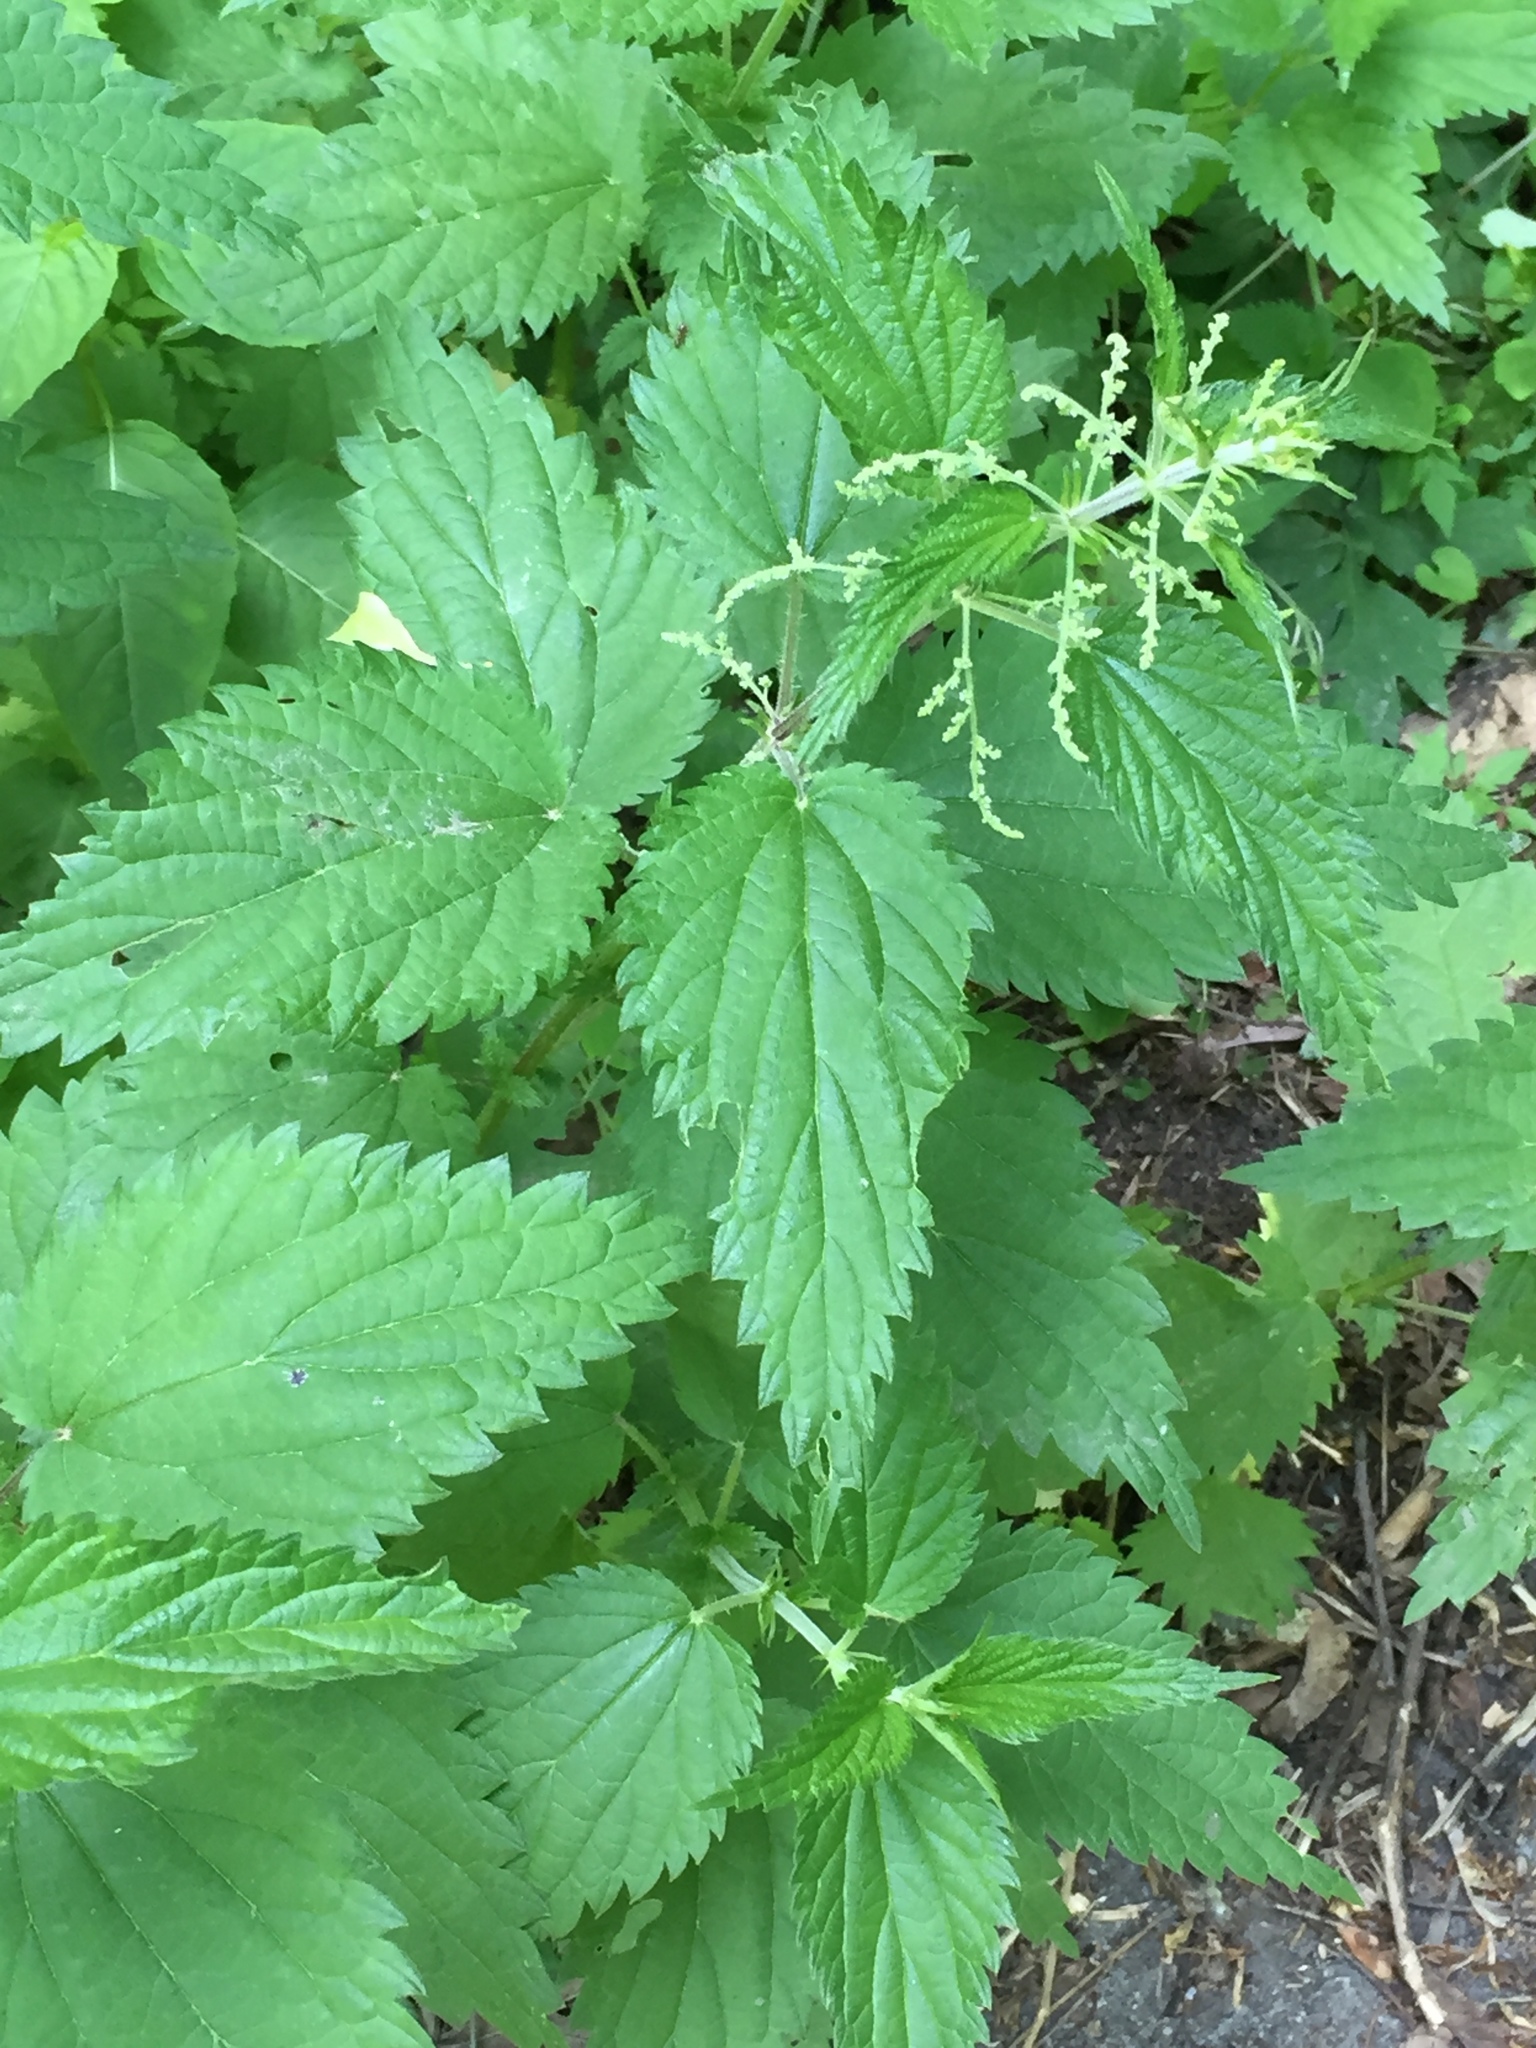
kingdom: Plantae
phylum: Tracheophyta
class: Magnoliopsida
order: Rosales
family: Urticaceae
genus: Urtica
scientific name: Urtica dioica
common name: Common nettle
